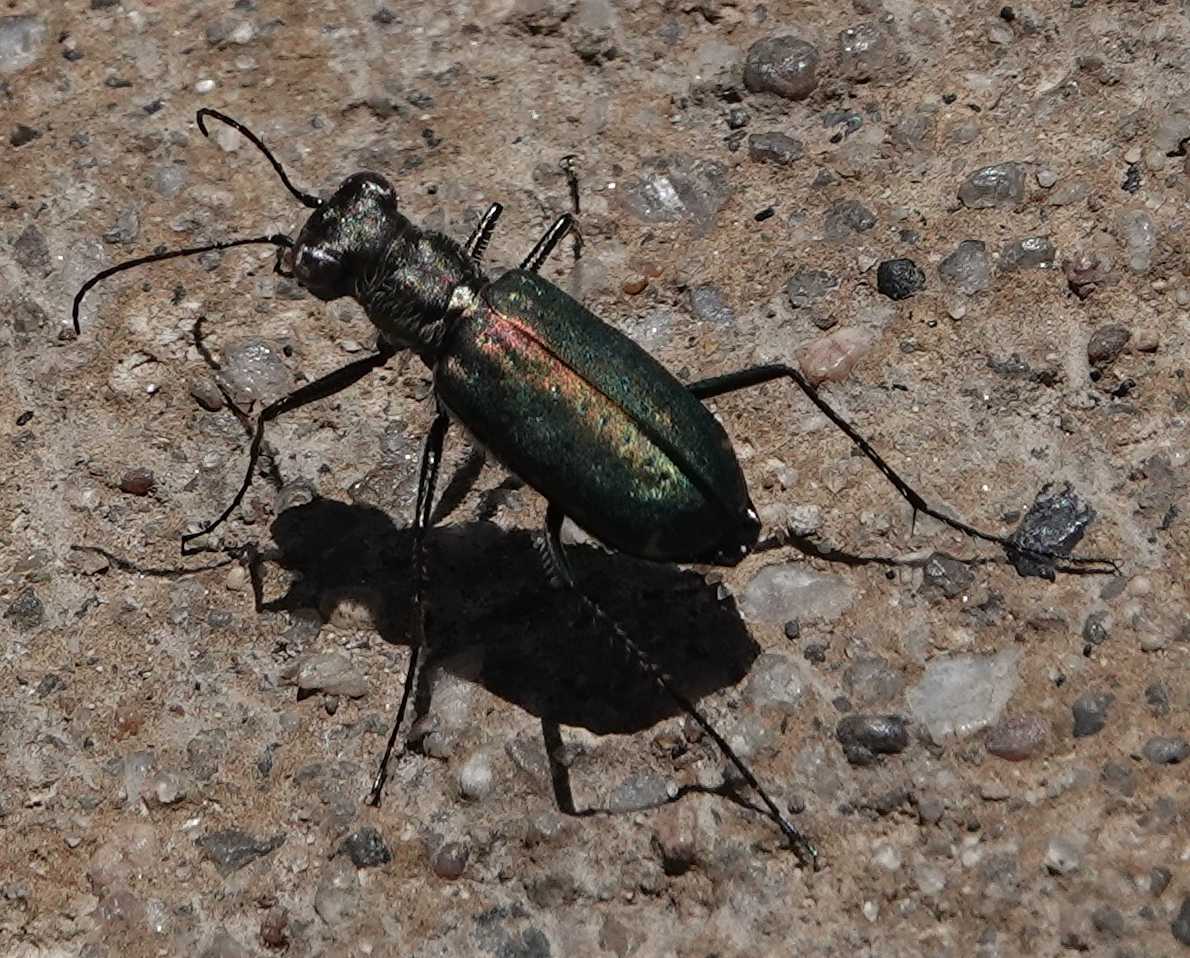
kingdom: Animalia
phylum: Arthropoda
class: Insecta
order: Coleoptera
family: Carabidae
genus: Cicindela
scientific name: Cicindela punctulata
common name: Punctured tiger beetle
